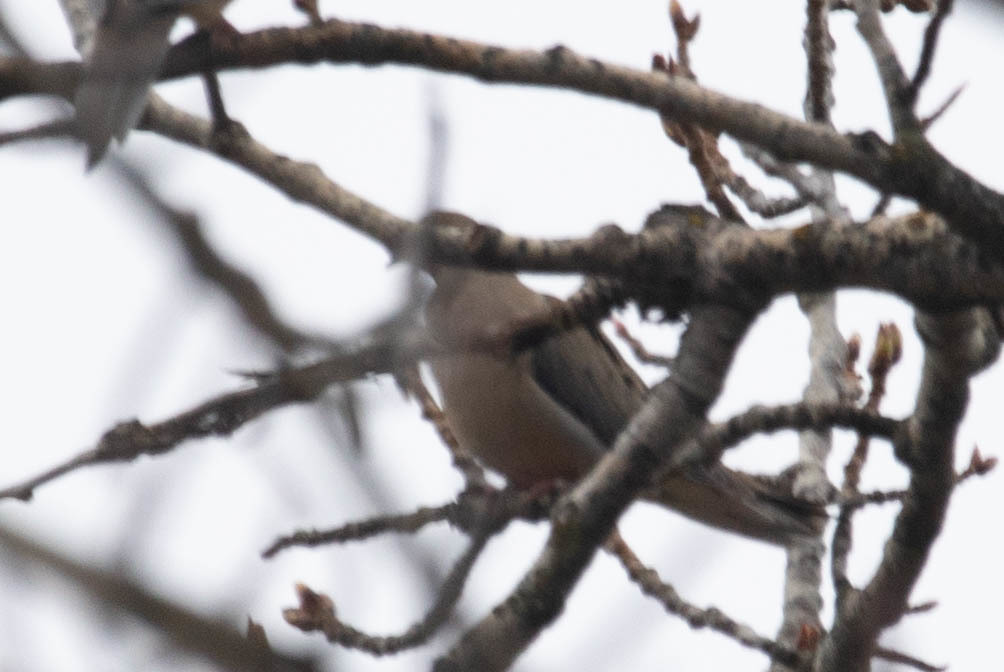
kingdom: Animalia
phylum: Chordata
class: Aves
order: Columbiformes
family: Columbidae
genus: Zenaida
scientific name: Zenaida macroura
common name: Mourning dove
